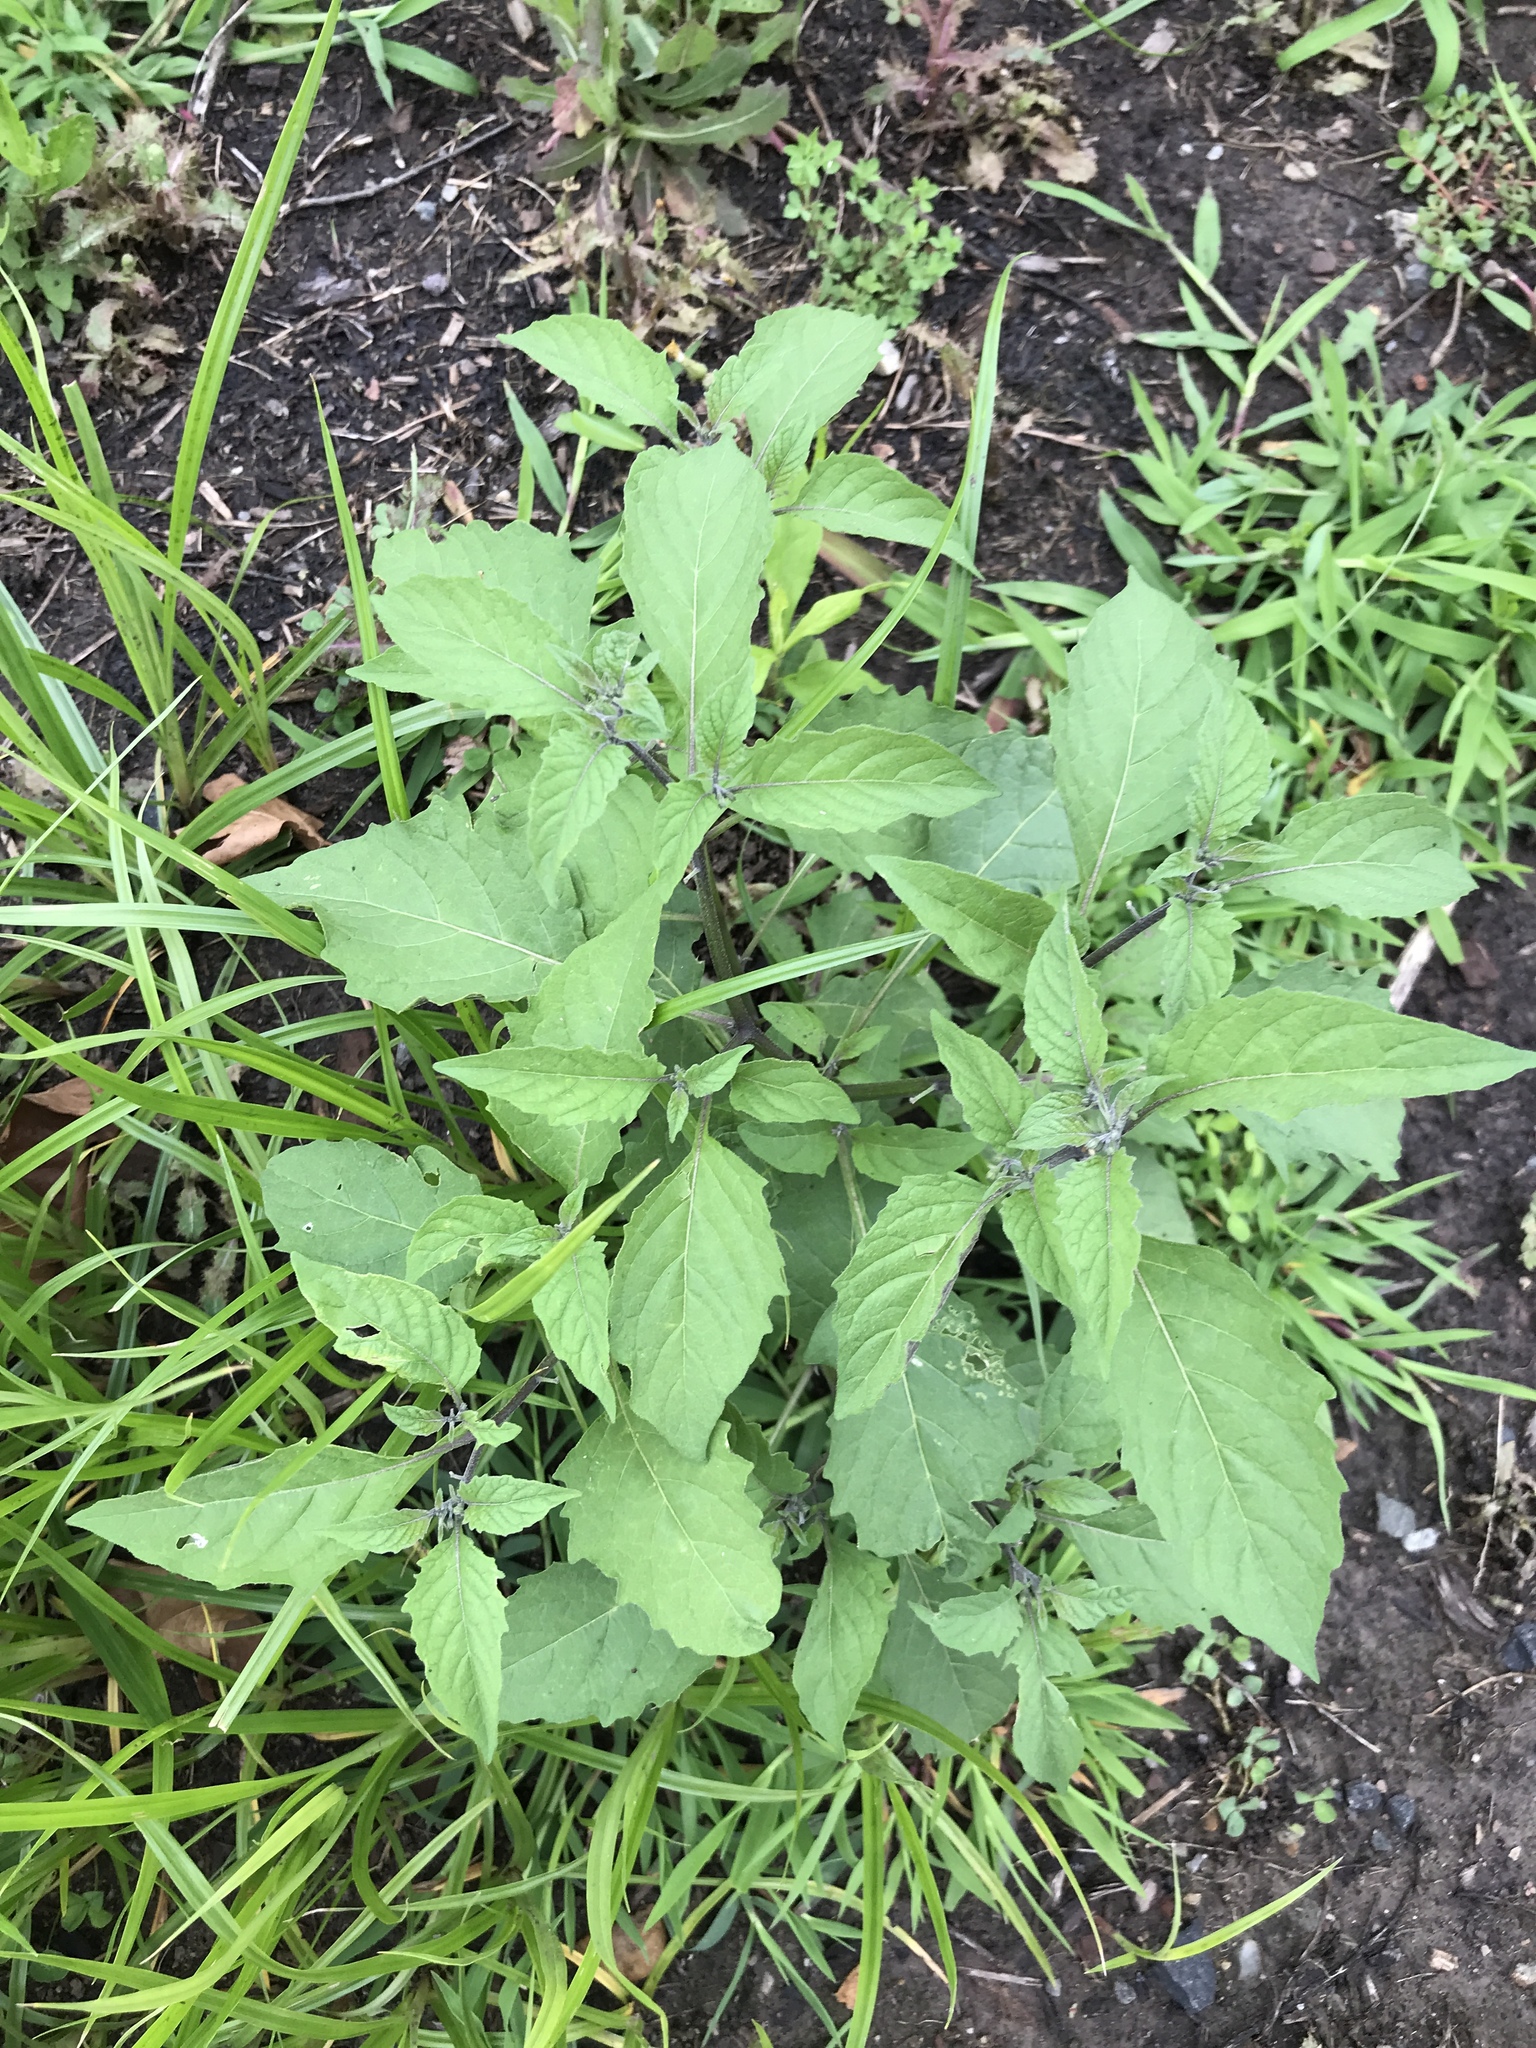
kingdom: Plantae
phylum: Tracheophyta
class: Magnoliopsida
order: Solanales
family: Solanaceae
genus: Solanum
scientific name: Solanum emulans
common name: Eastern black nightshade
